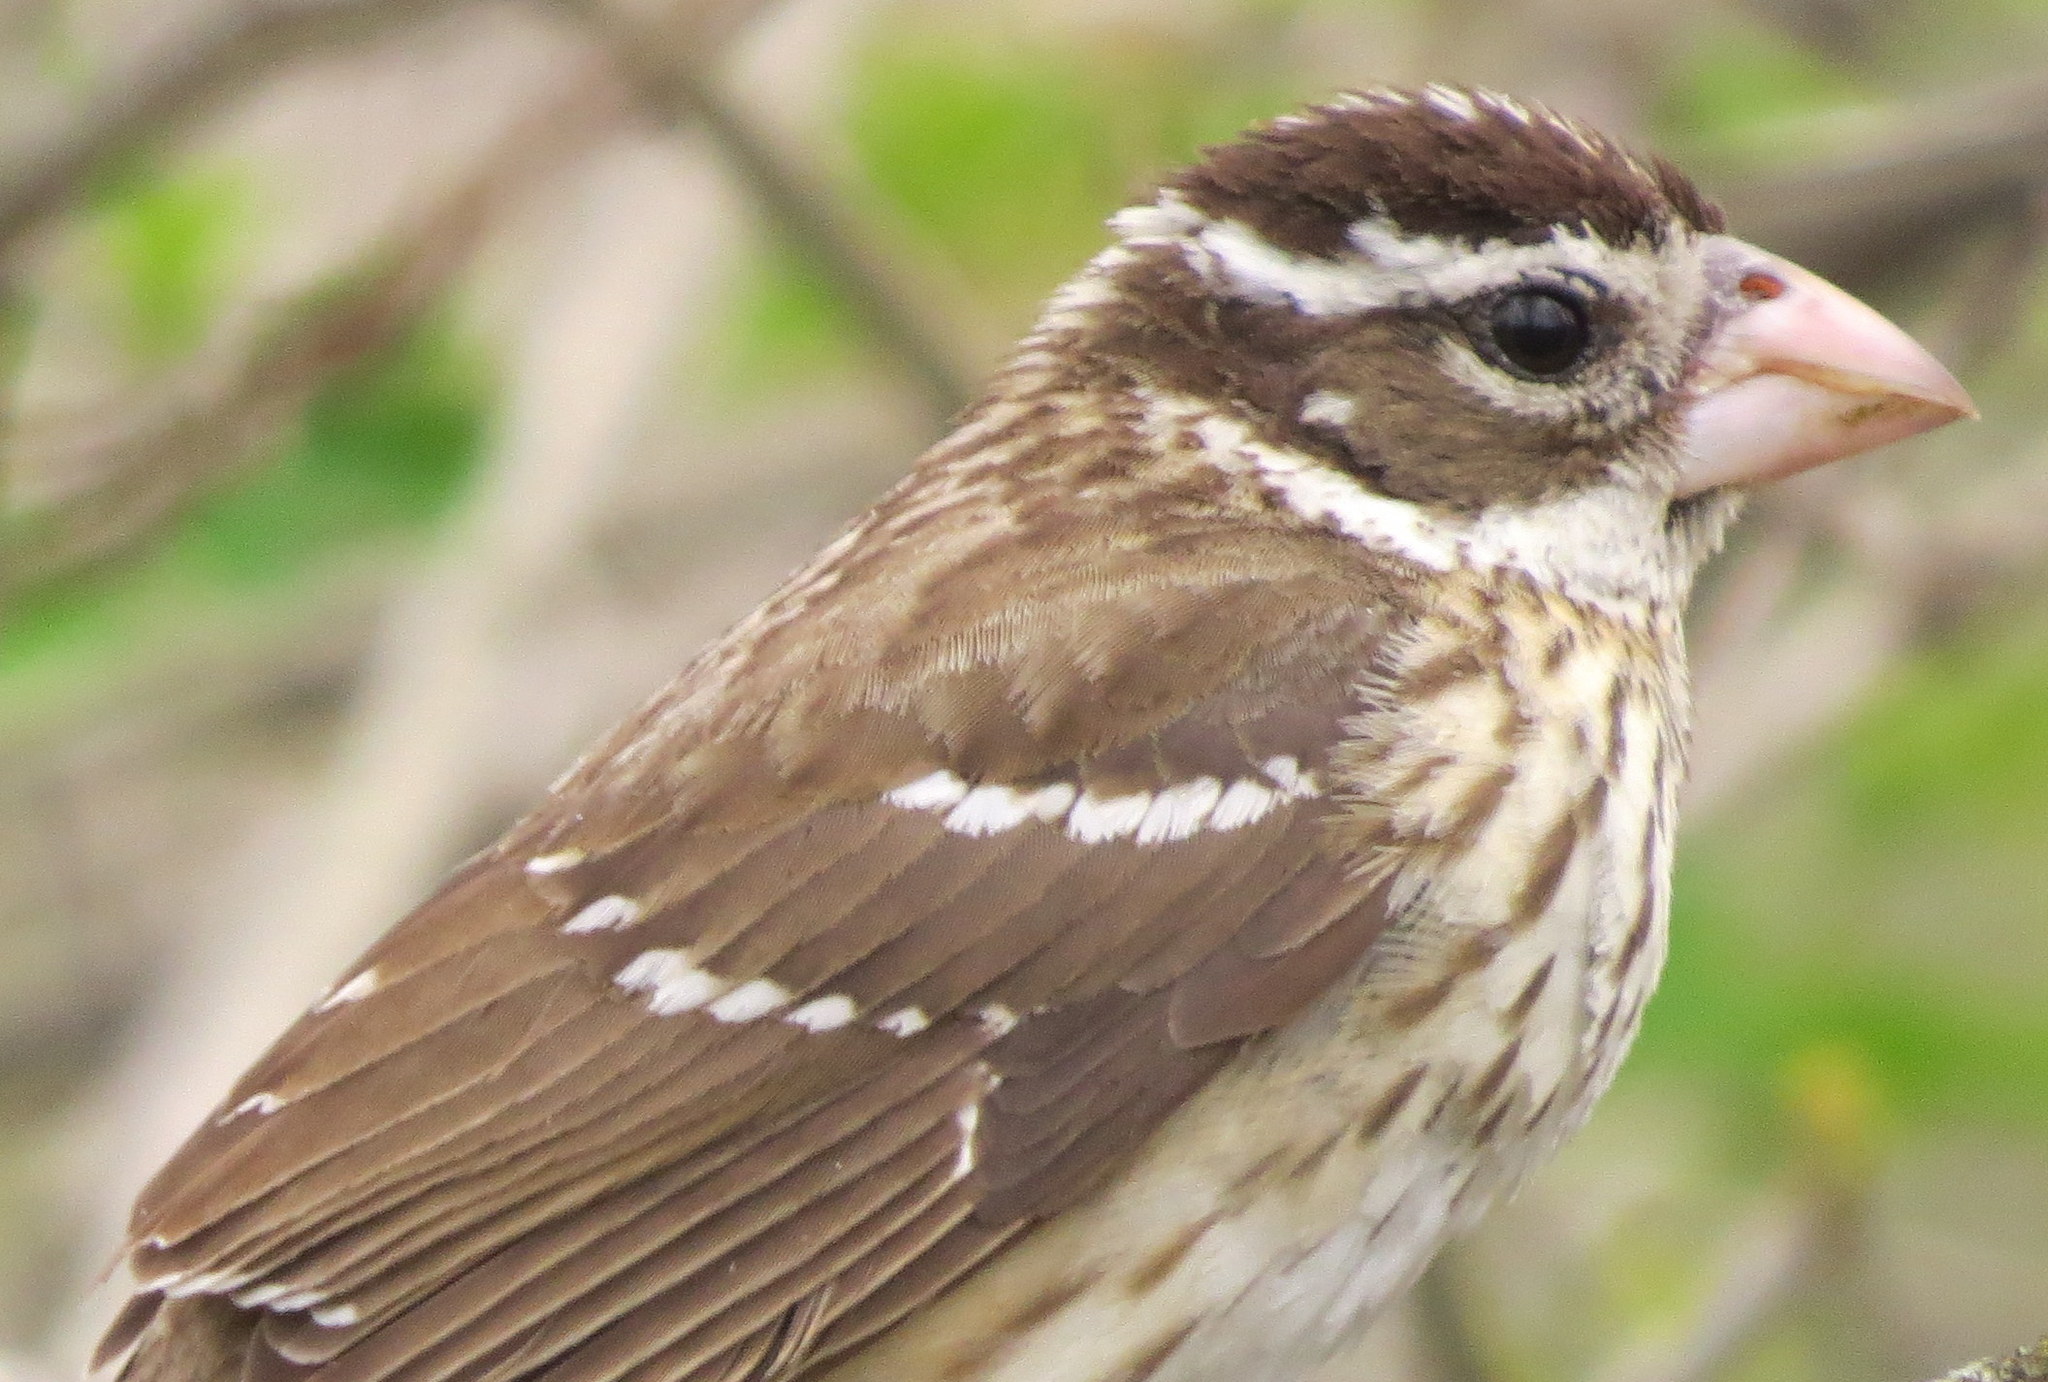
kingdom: Animalia
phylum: Chordata
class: Aves
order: Passeriformes
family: Cardinalidae
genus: Pheucticus
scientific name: Pheucticus ludovicianus
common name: Rose-breasted grosbeak
